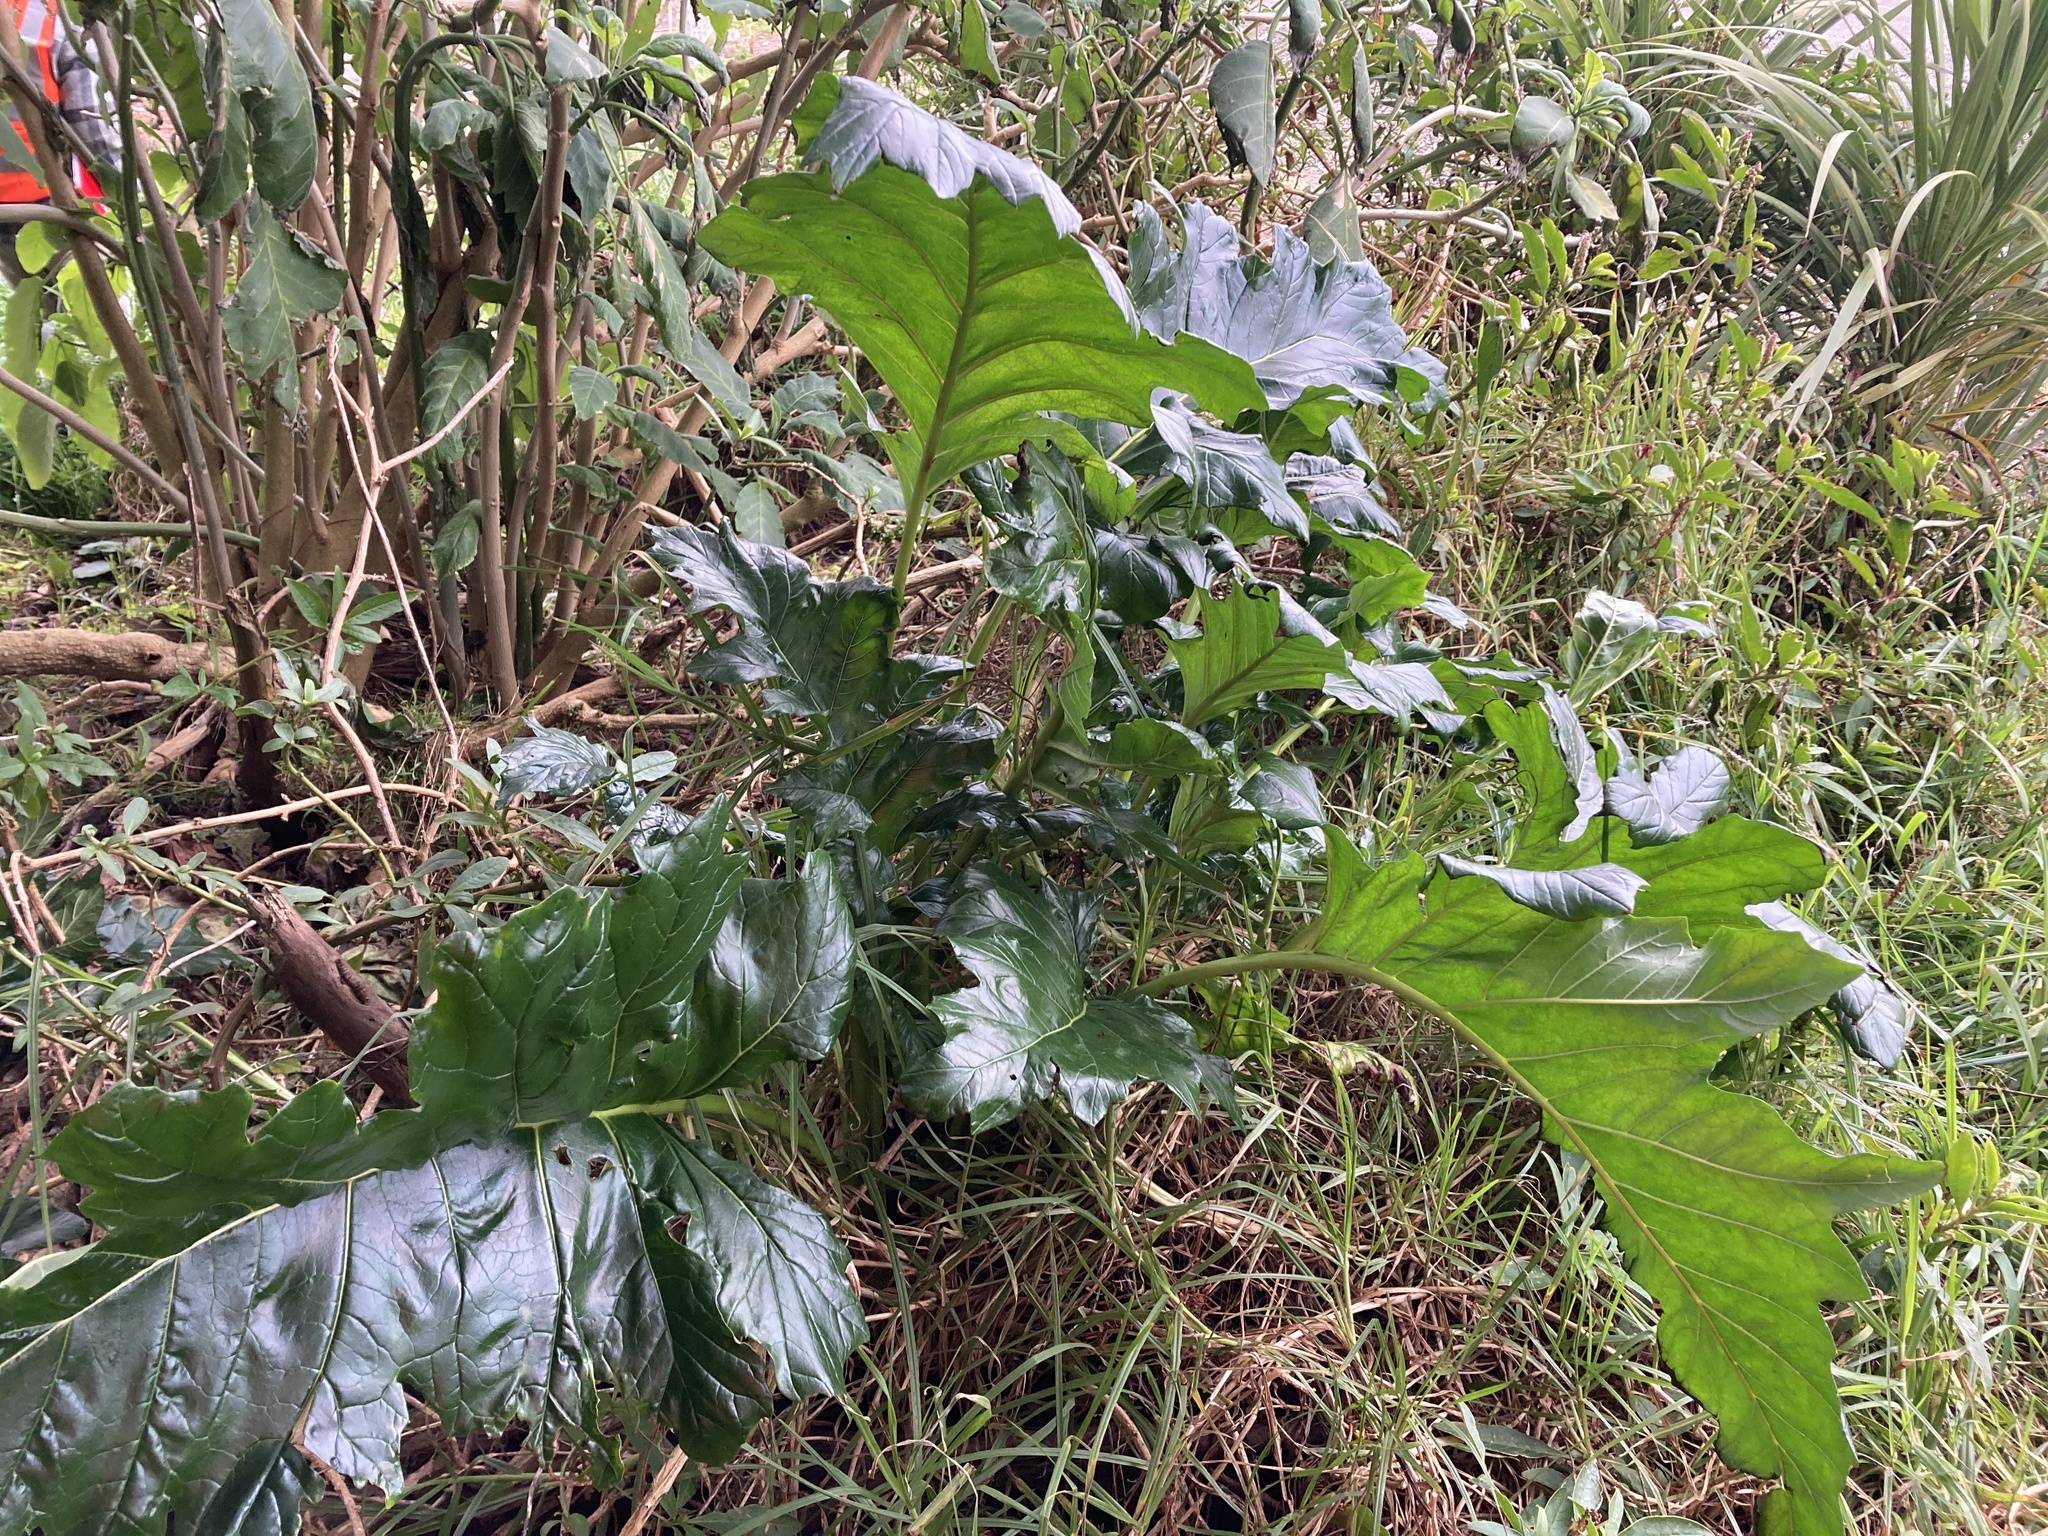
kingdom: Plantae
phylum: Tracheophyta
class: Magnoliopsida
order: Lamiales
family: Acanthaceae
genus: Acanthus
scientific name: Acanthus mollis
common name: Bear's-breech
